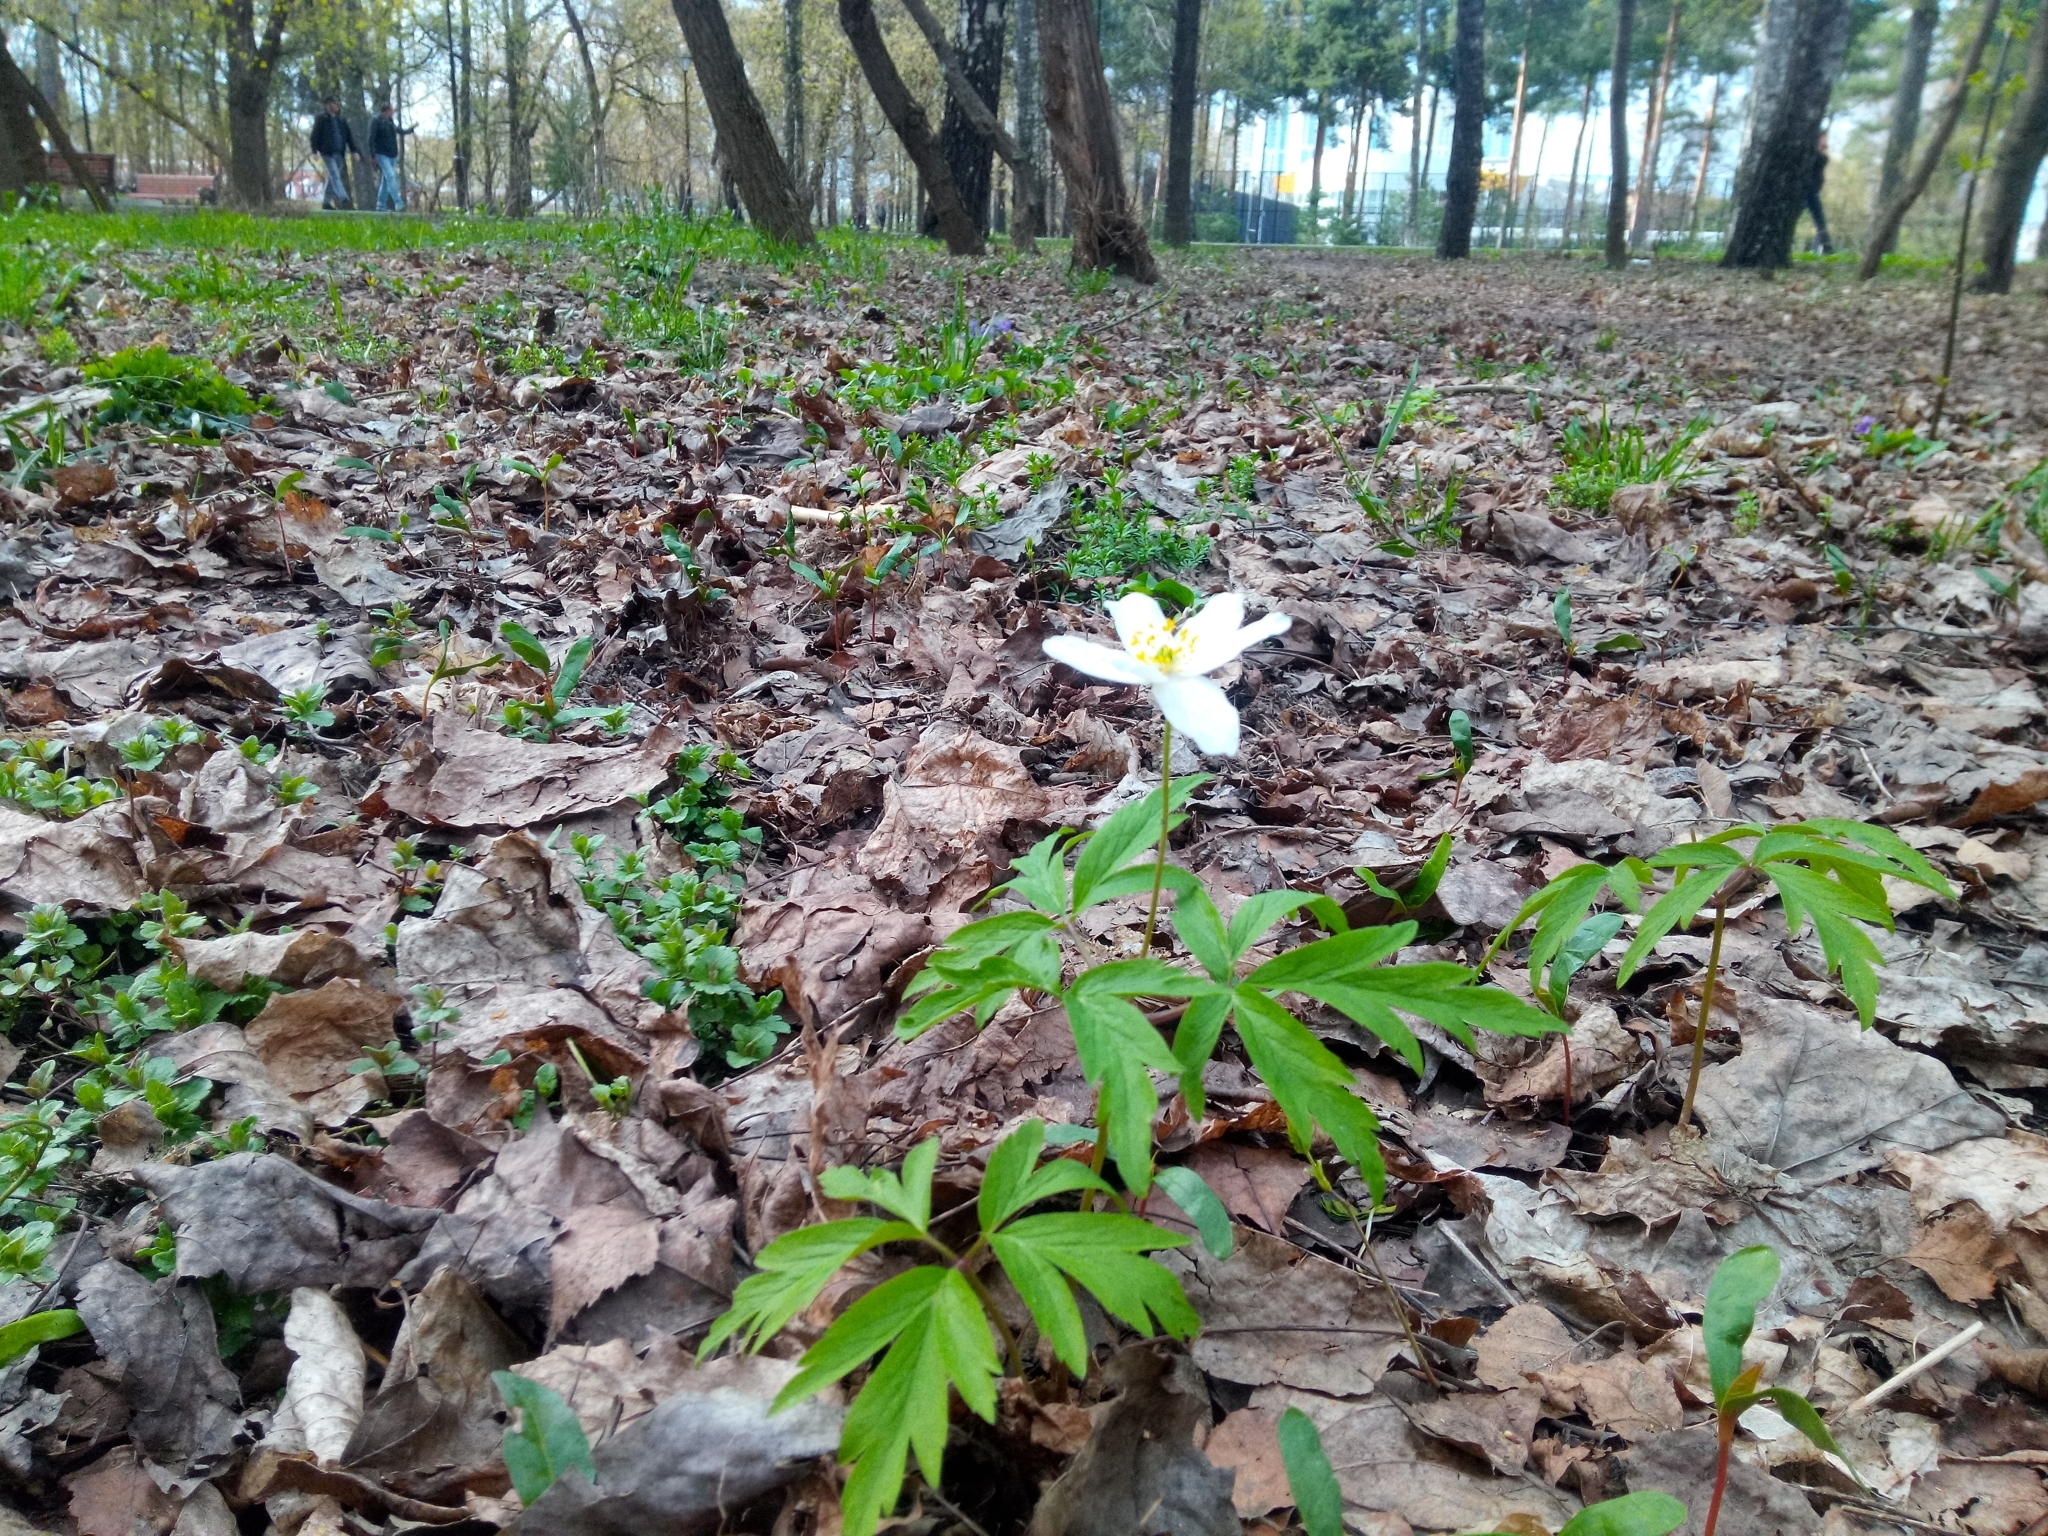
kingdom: Plantae
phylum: Tracheophyta
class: Magnoliopsida
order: Ranunculales
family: Ranunculaceae
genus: Anemone
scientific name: Anemone nemorosa
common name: Wood anemone
